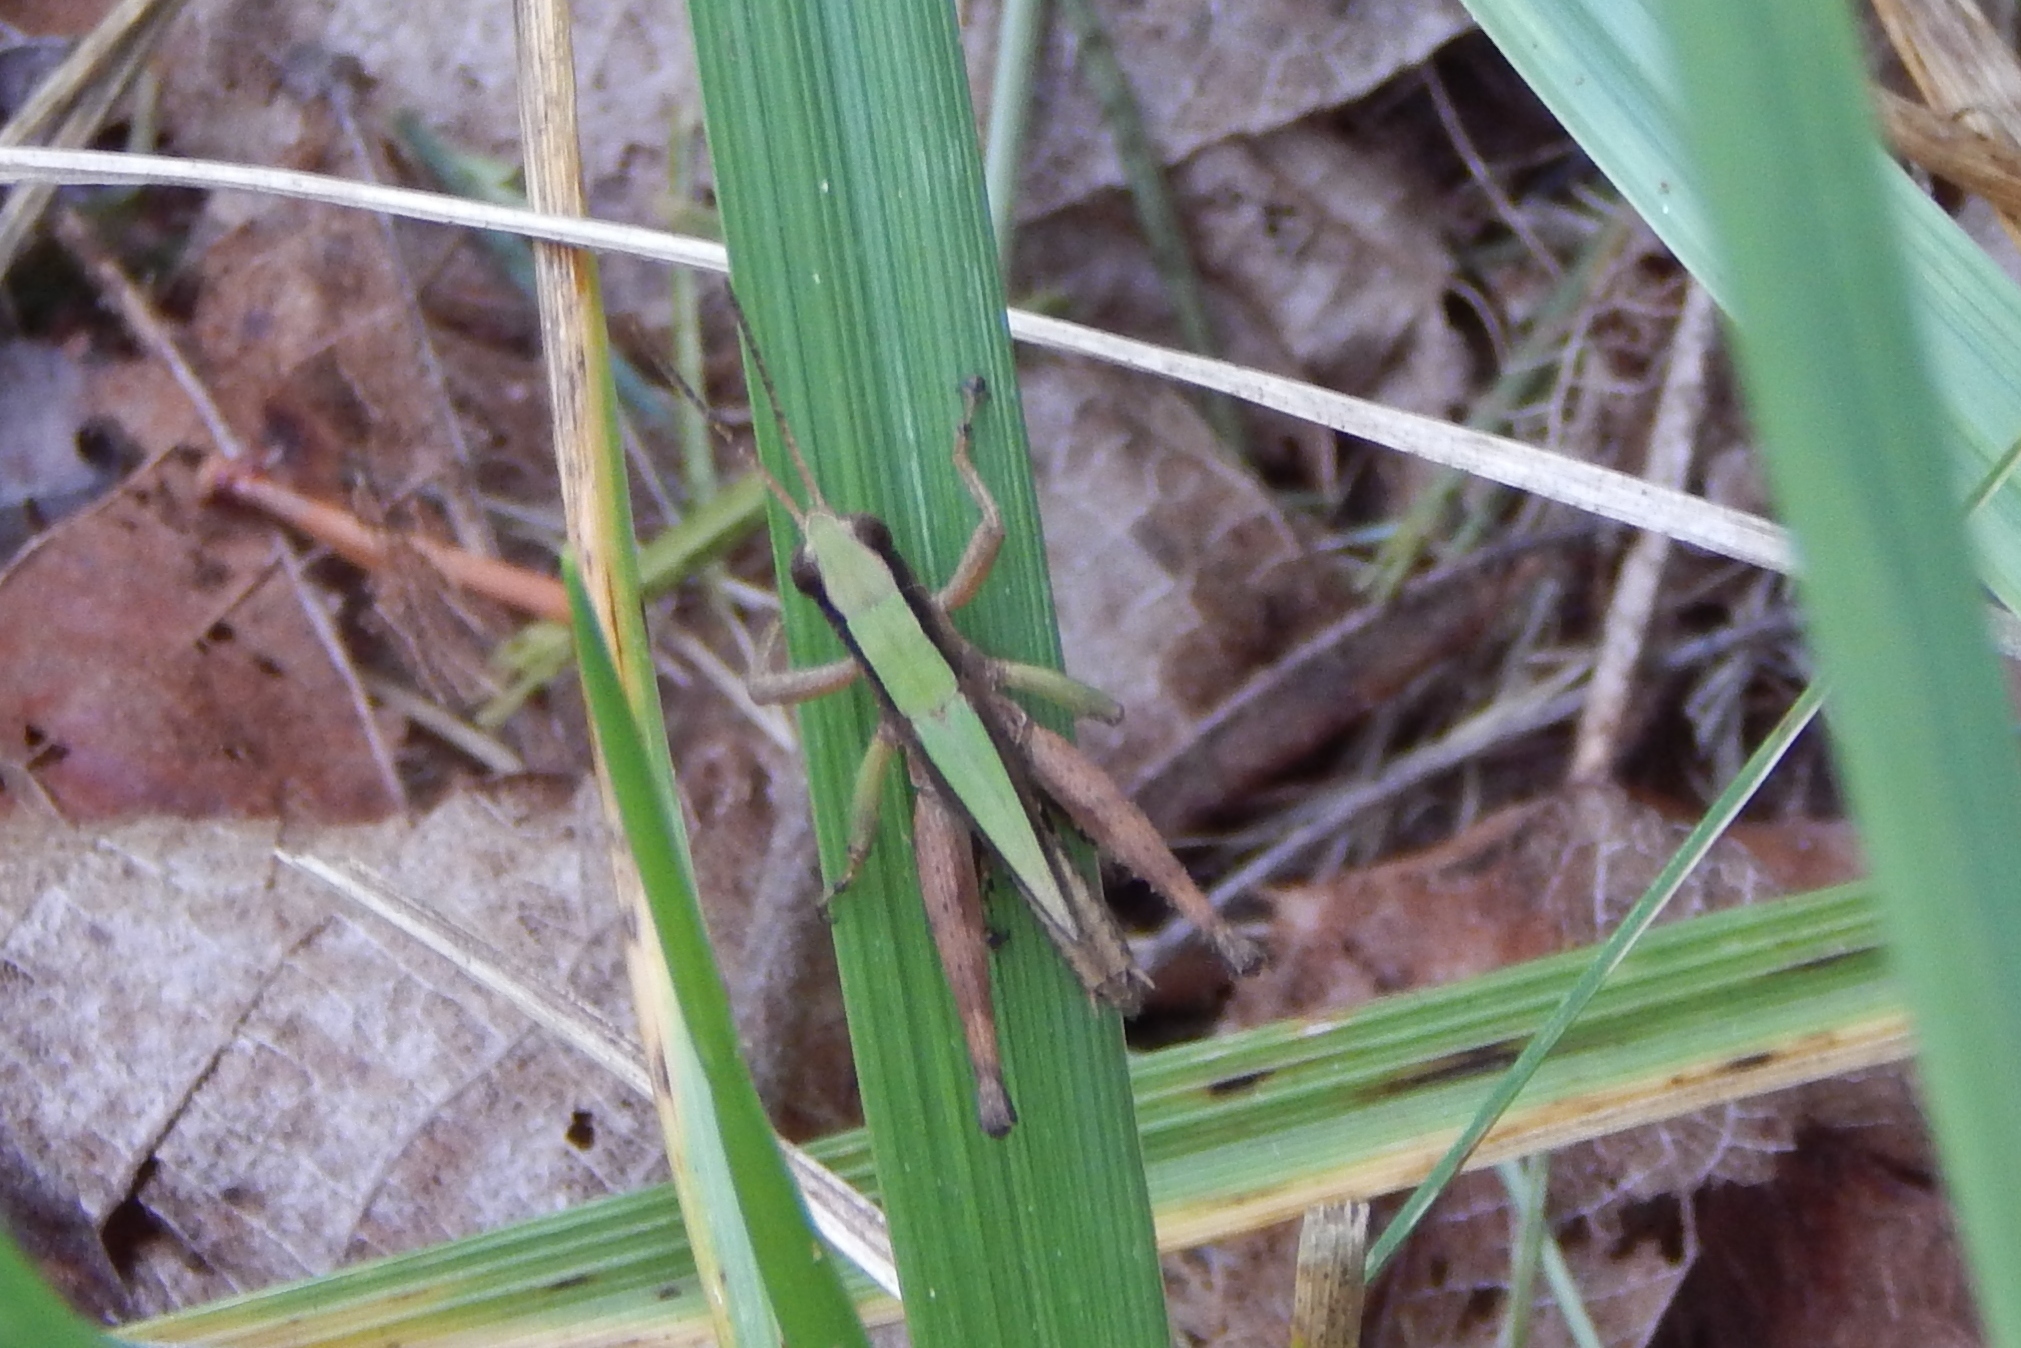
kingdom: Animalia
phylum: Arthropoda
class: Insecta
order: Orthoptera
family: Acrididae
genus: Dichromorpha
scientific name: Dichromorpha viridis
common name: Short-winged green grasshopper
